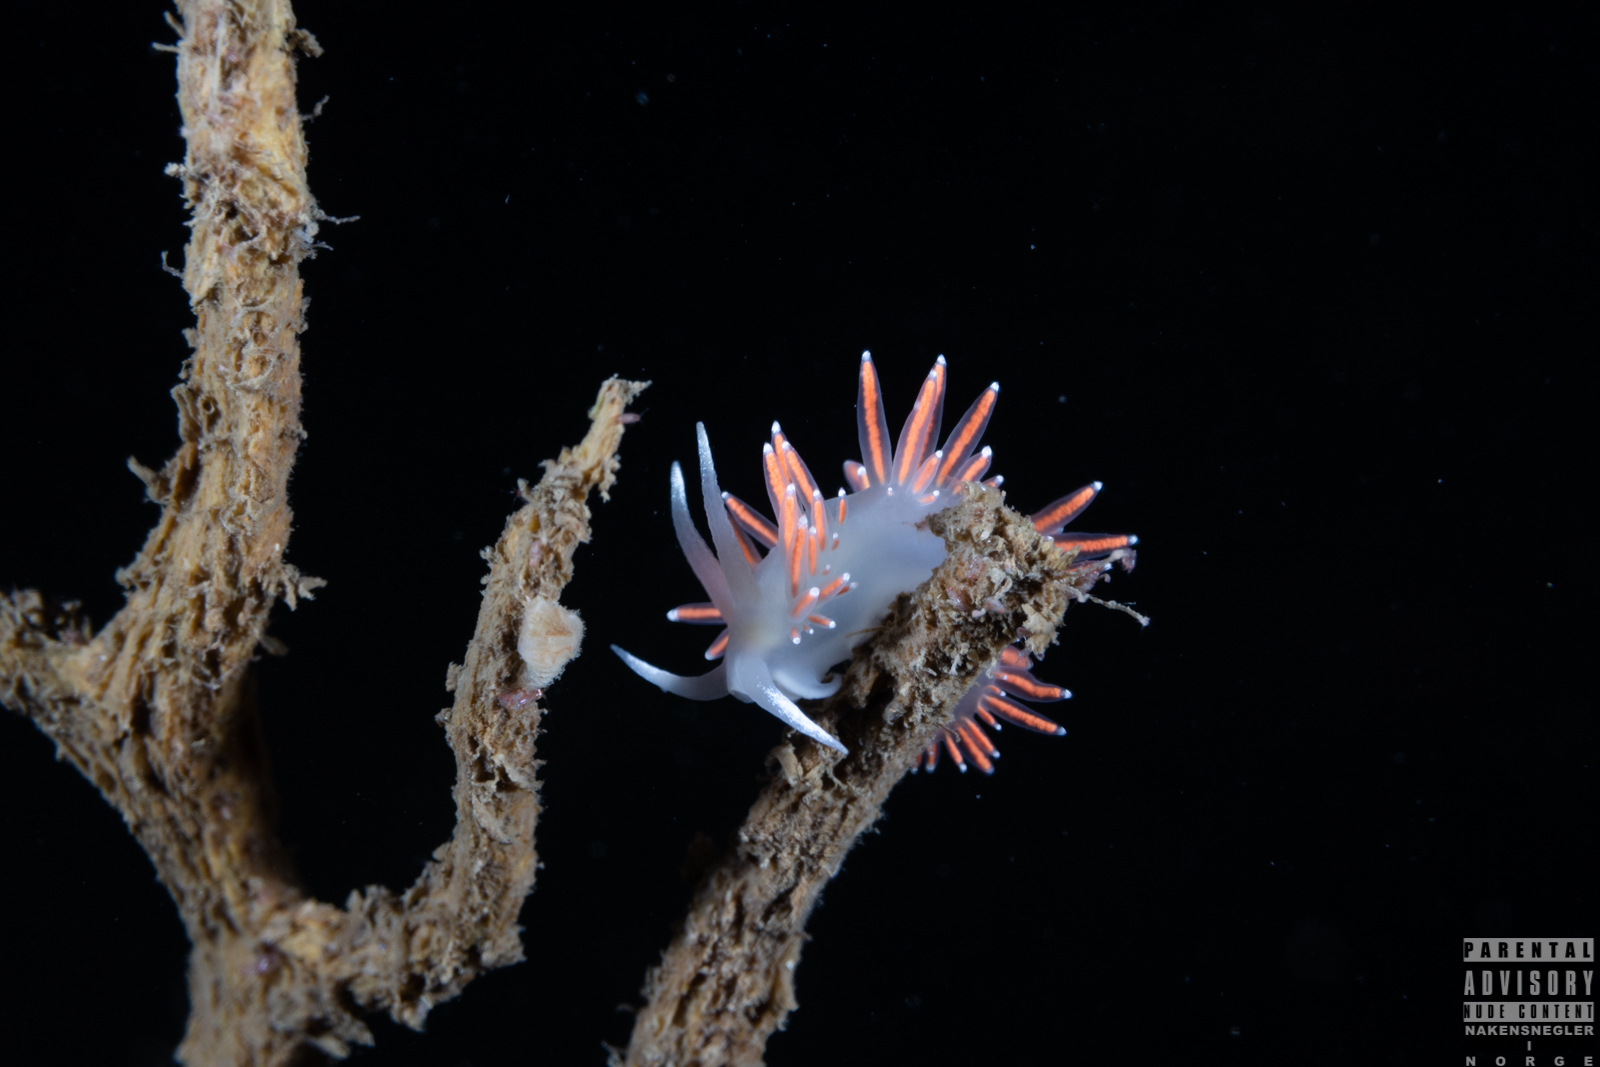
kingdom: Animalia
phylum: Mollusca
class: Gastropoda
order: Nudibranchia
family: Coryphellidae
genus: Coryphella
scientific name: Coryphella browni
